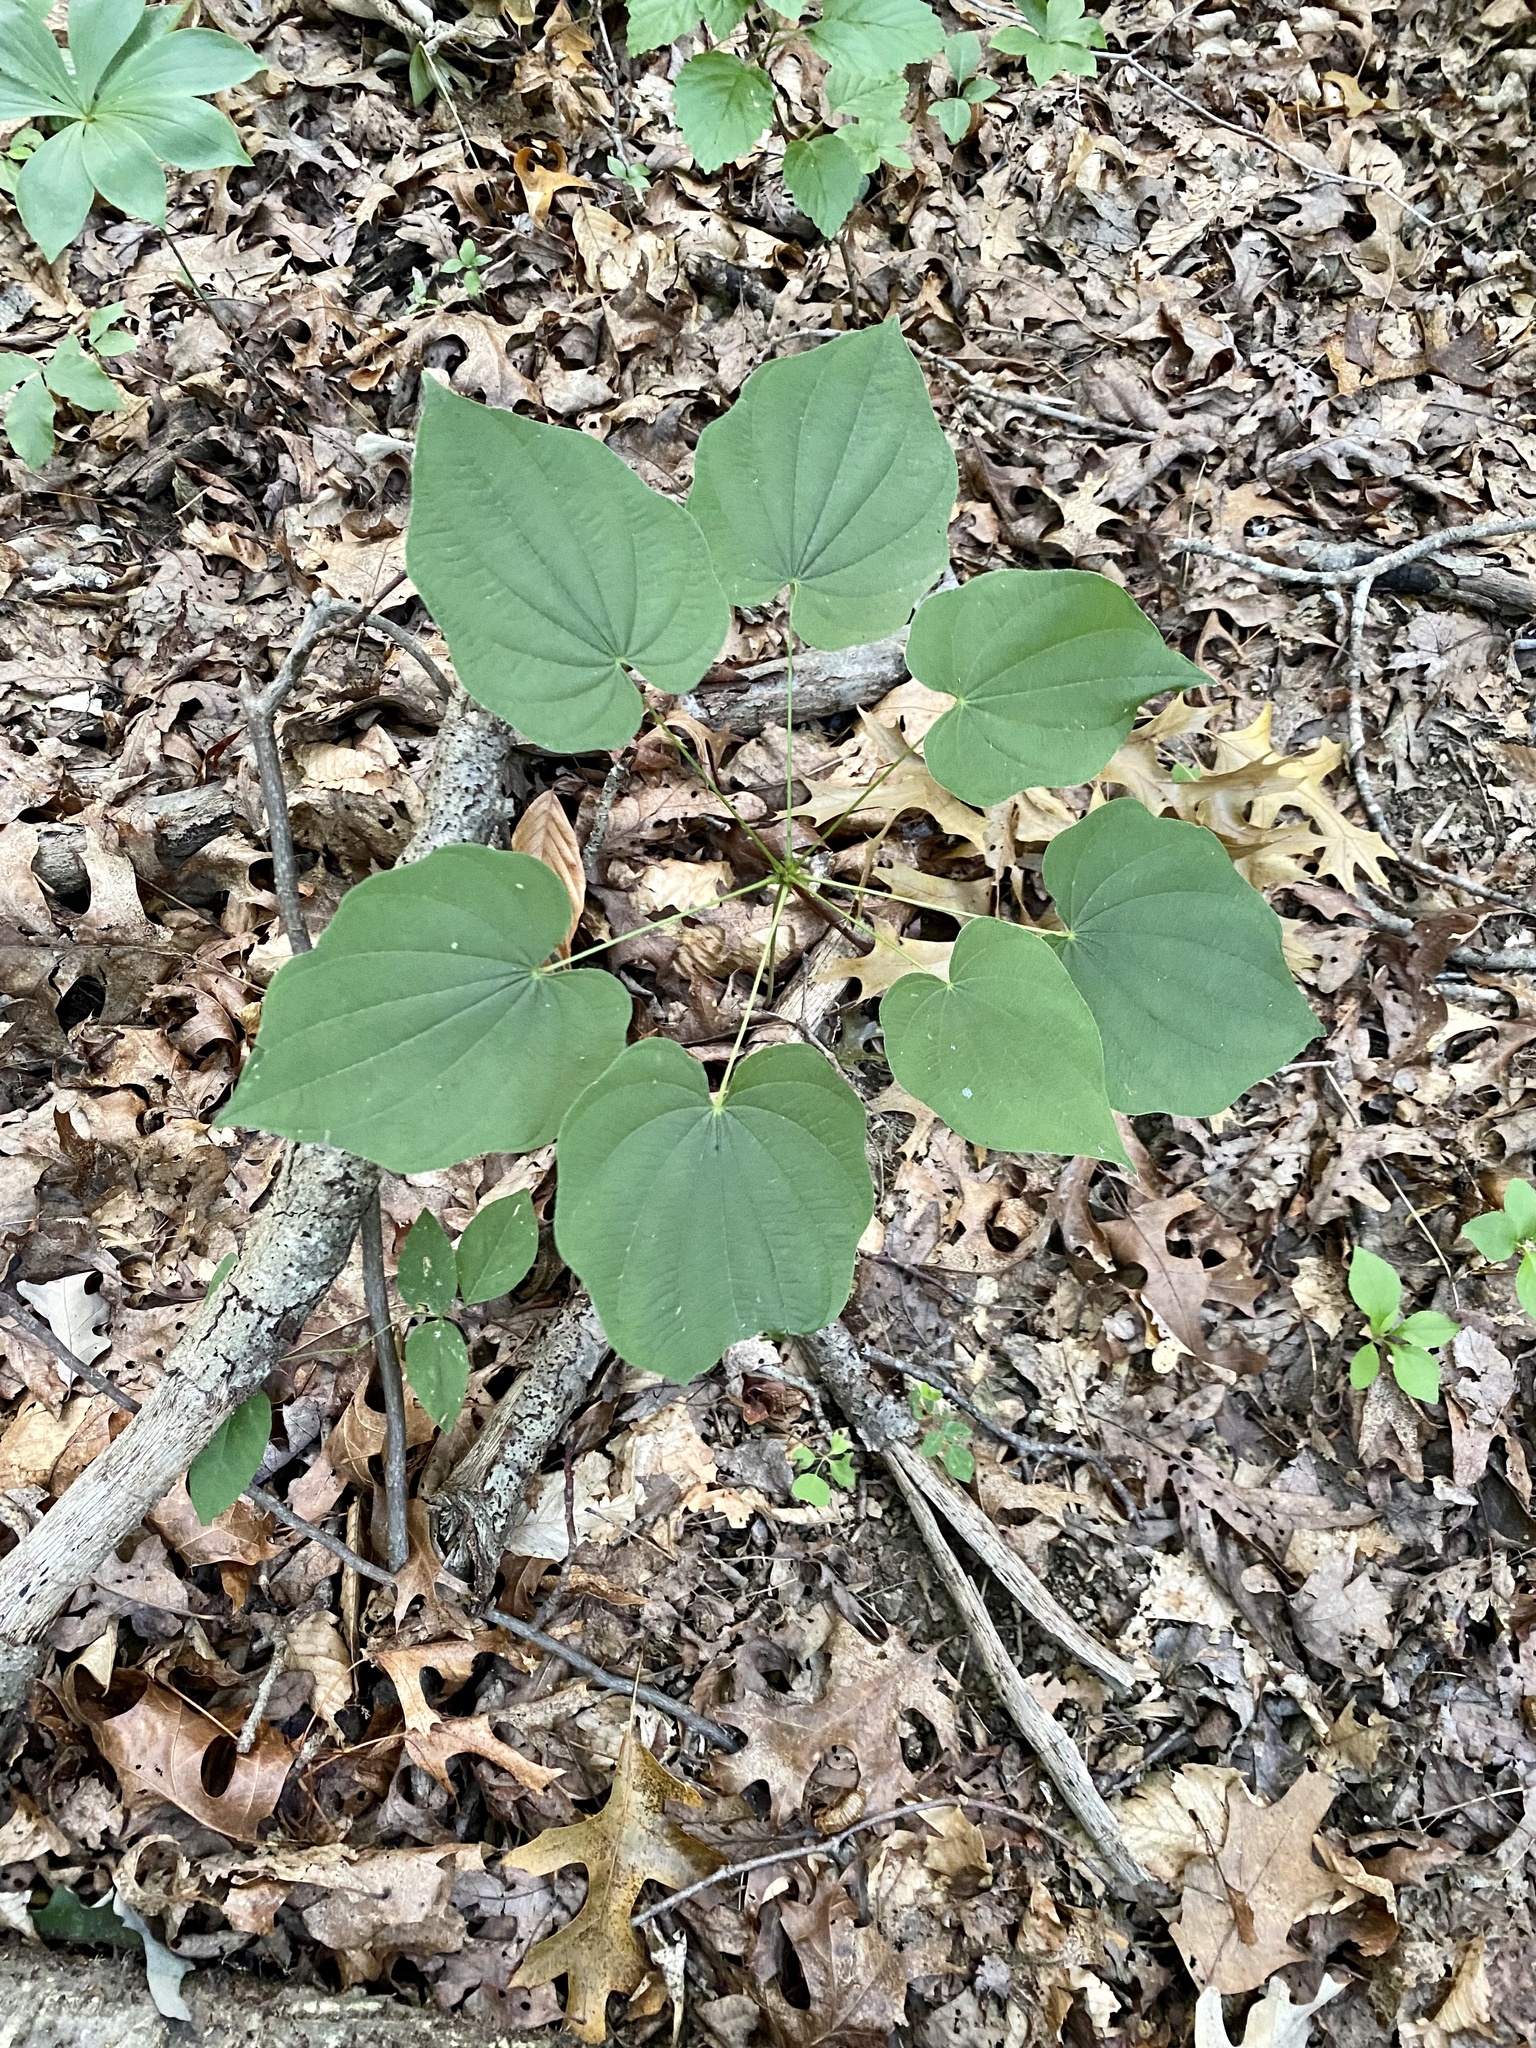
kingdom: Plantae
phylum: Tracheophyta
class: Liliopsida
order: Dioscoreales
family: Dioscoreaceae
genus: Dioscorea
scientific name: Dioscorea villosa
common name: Wild yam
